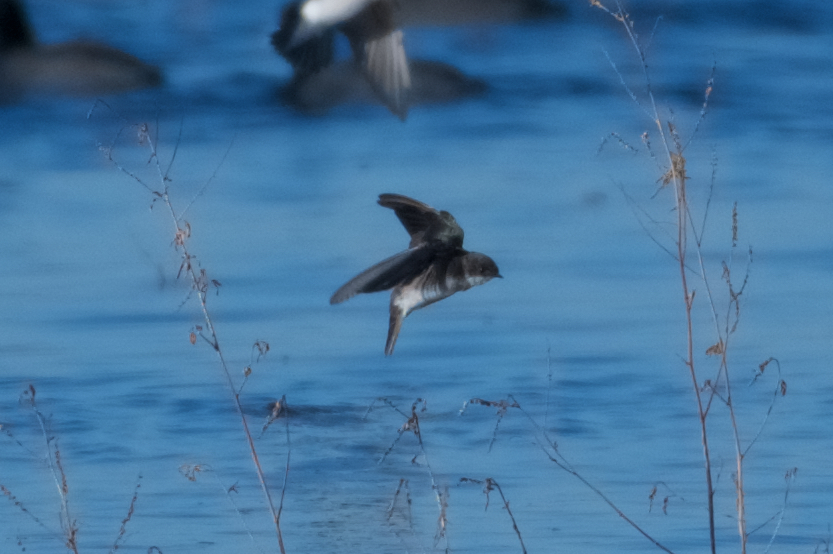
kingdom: Animalia
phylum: Chordata
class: Aves
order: Passeriformes
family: Hirundinidae
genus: Tachycineta
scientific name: Tachycineta bicolor
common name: Tree swallow
